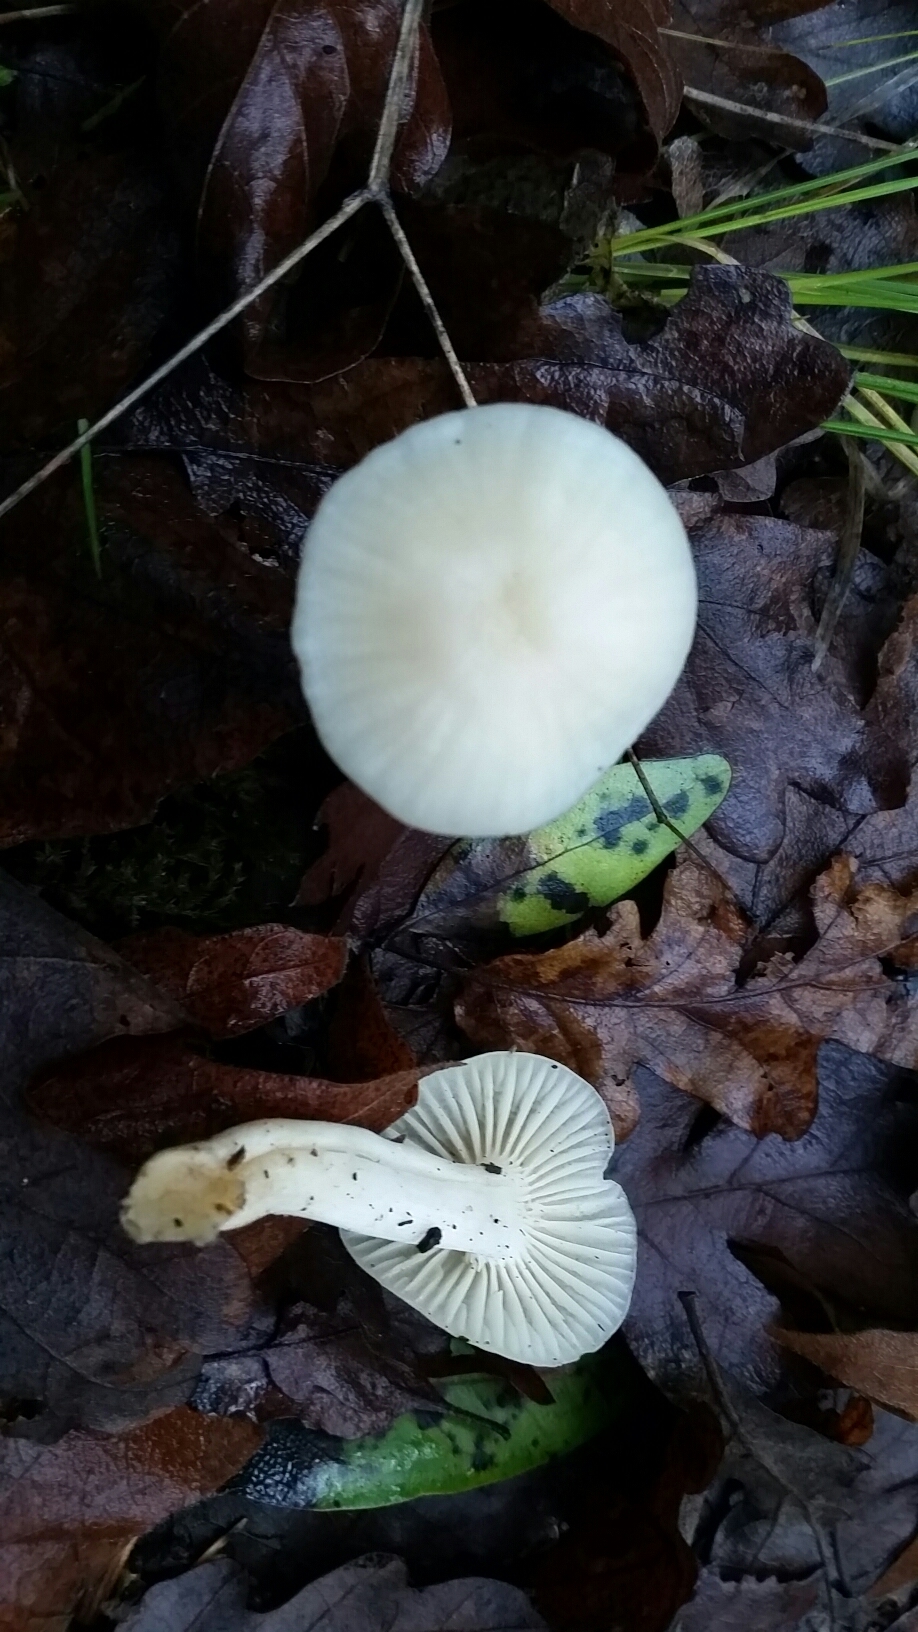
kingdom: Fungi
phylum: Basidiomycota
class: Agaricomycetes
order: Agaricales
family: Hygrophoraceae
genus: Cuphophyllus
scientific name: Cuphophyllus virgineus
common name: Snowy waxcap
